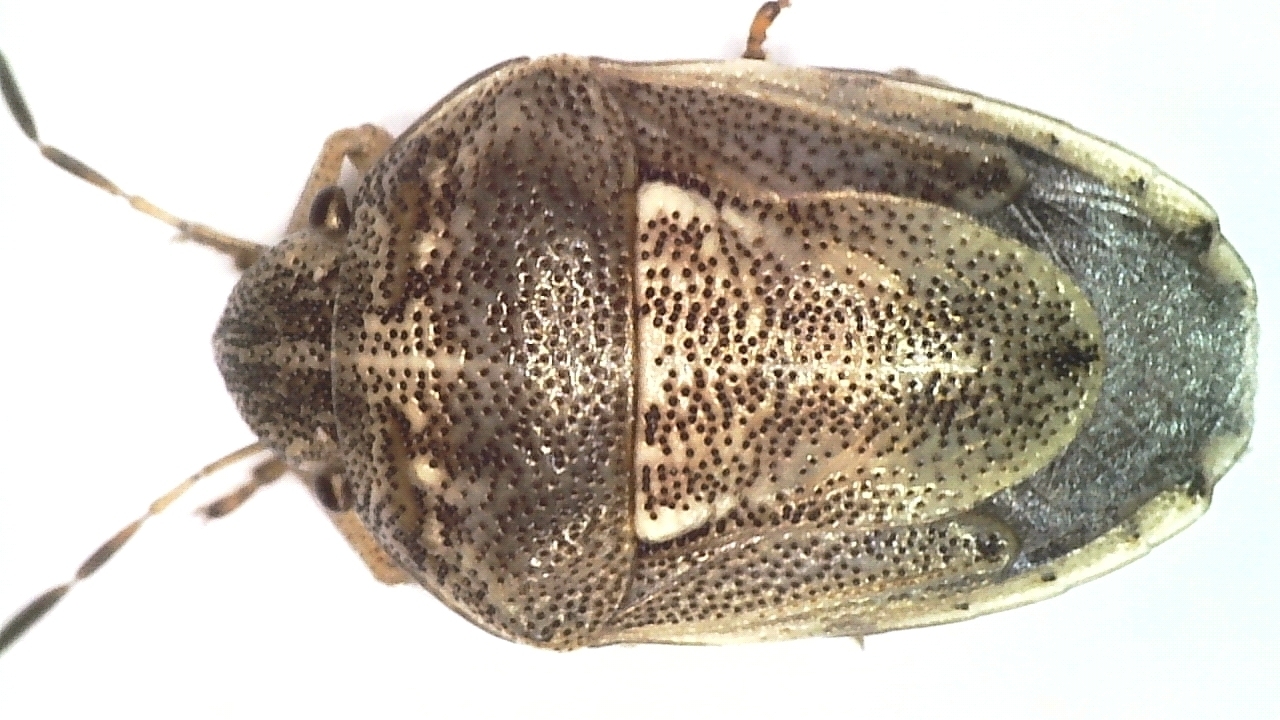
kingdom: Animalia
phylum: Arthropoda
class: Insecta
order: Hemiptera
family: Pentatomidae
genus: Neottiglossa
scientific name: Neottiglossa leporina
